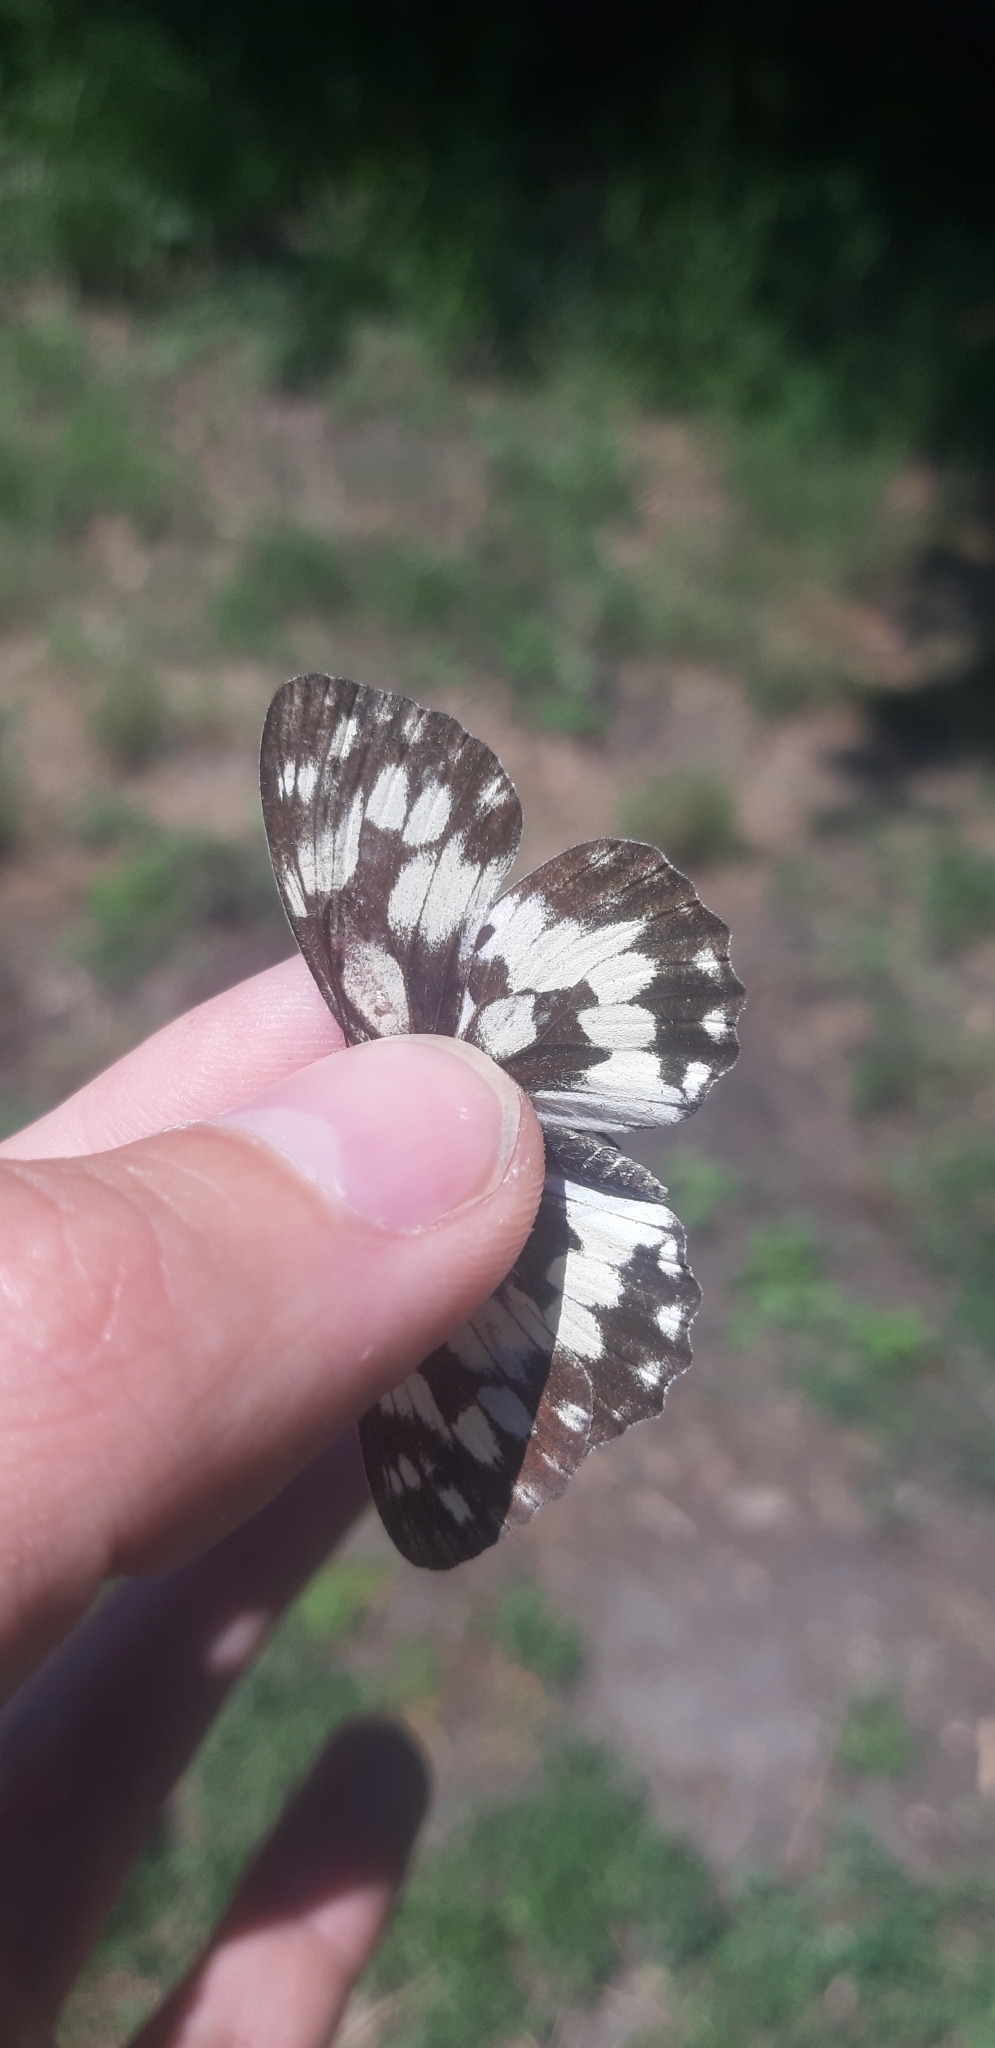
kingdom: Animalia
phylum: Arthropoda
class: Insecta
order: Lepidoptera
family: Nymphalidae
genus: Melanargia
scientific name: Melanargia galathea
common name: Marbled white
